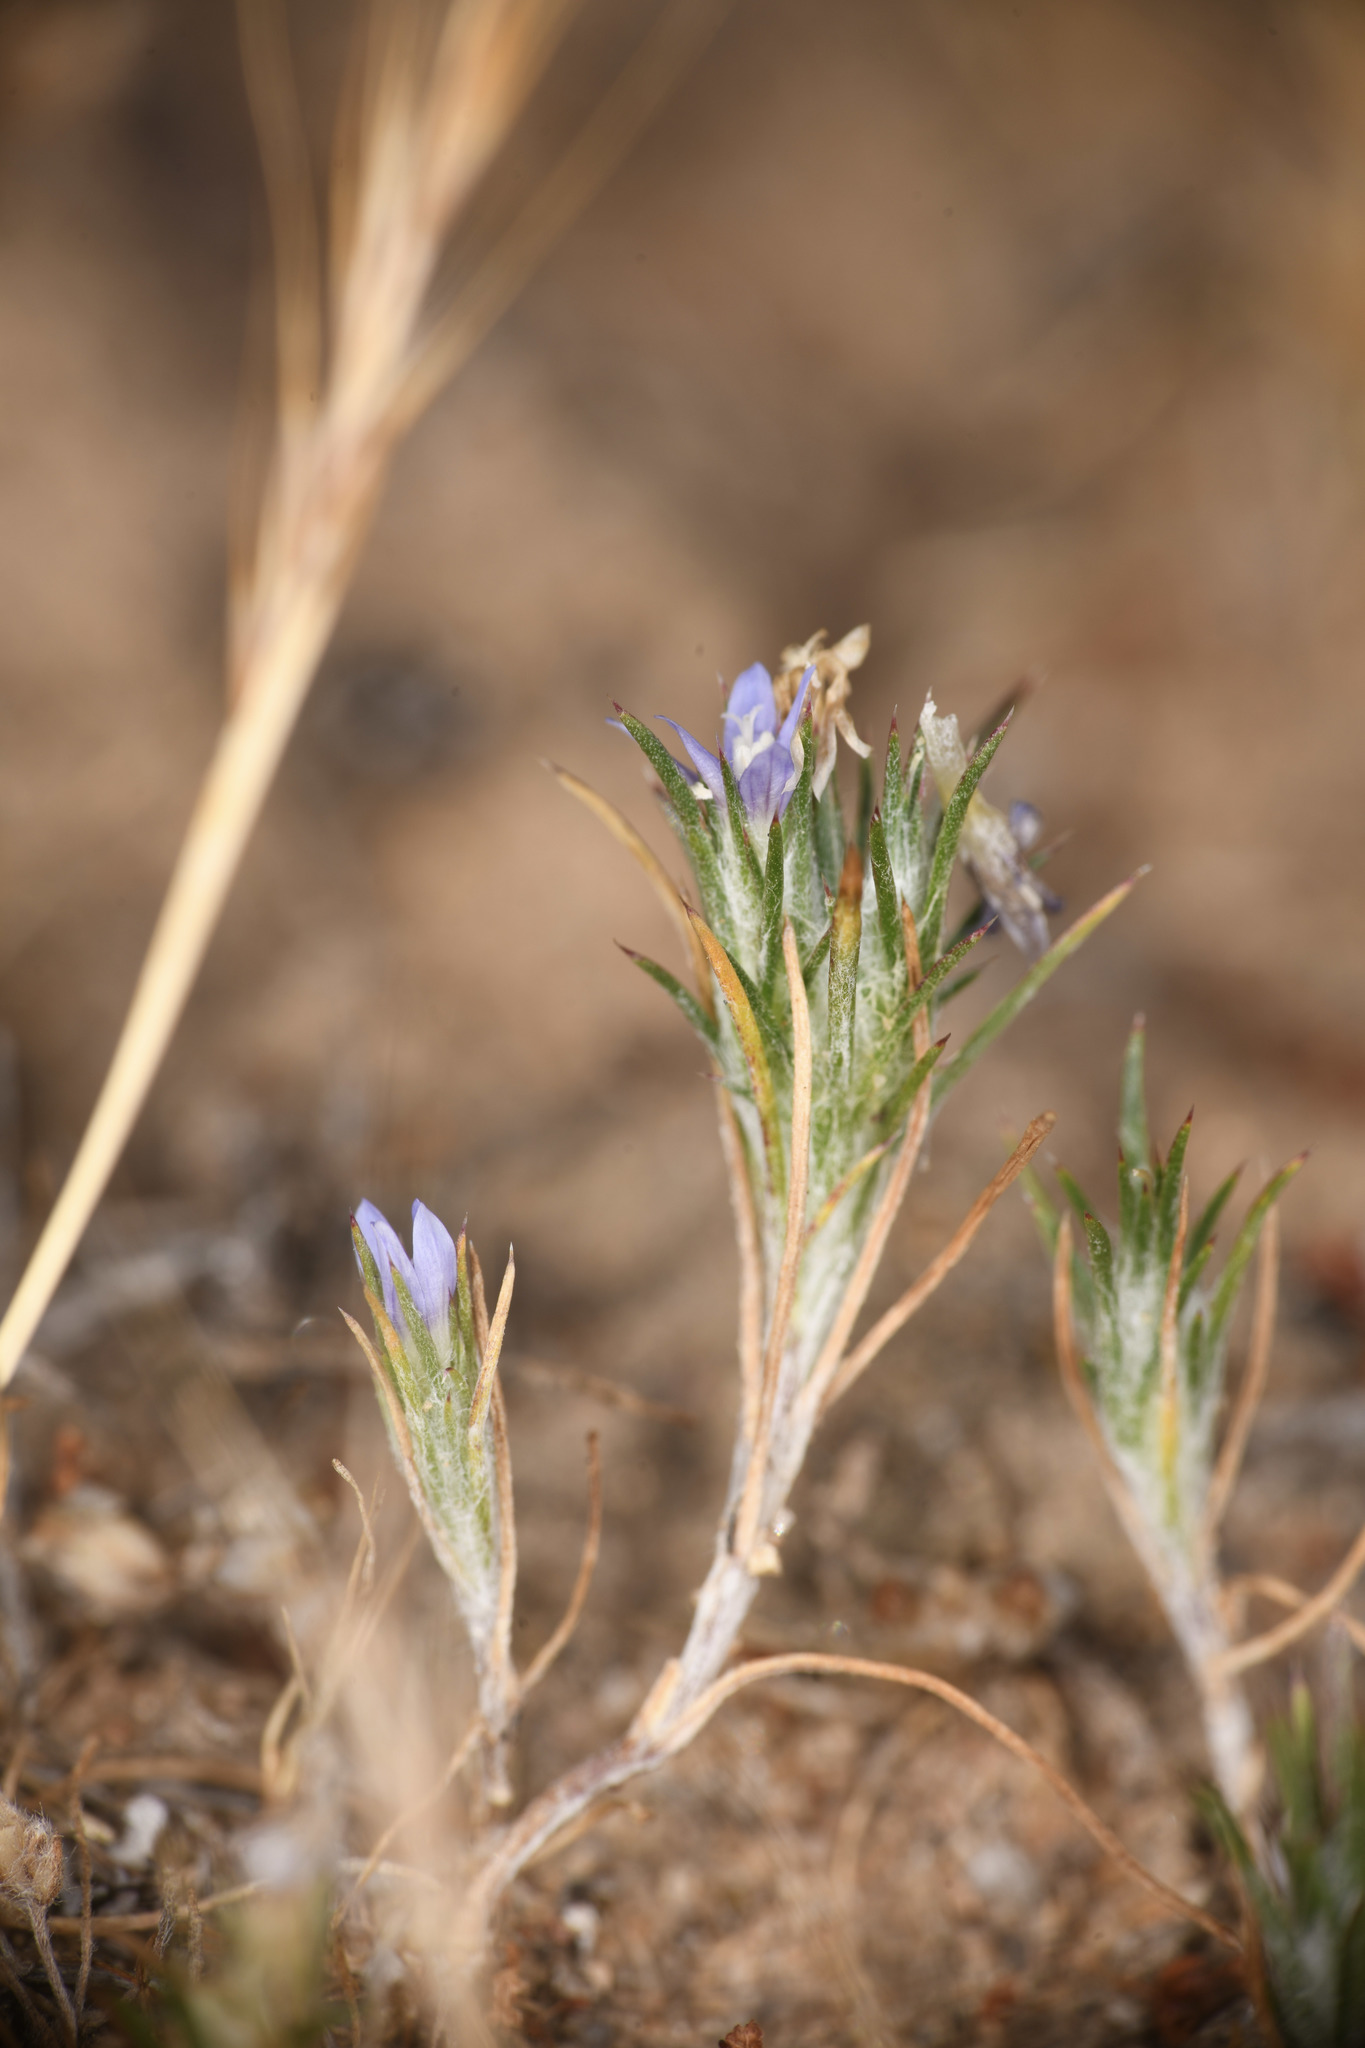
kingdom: Plantae
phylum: Tracheophyta
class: Magnoliopsida
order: Ericales
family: Polemoniaceae
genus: Eriastrum
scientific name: Eriastrum filifolium
